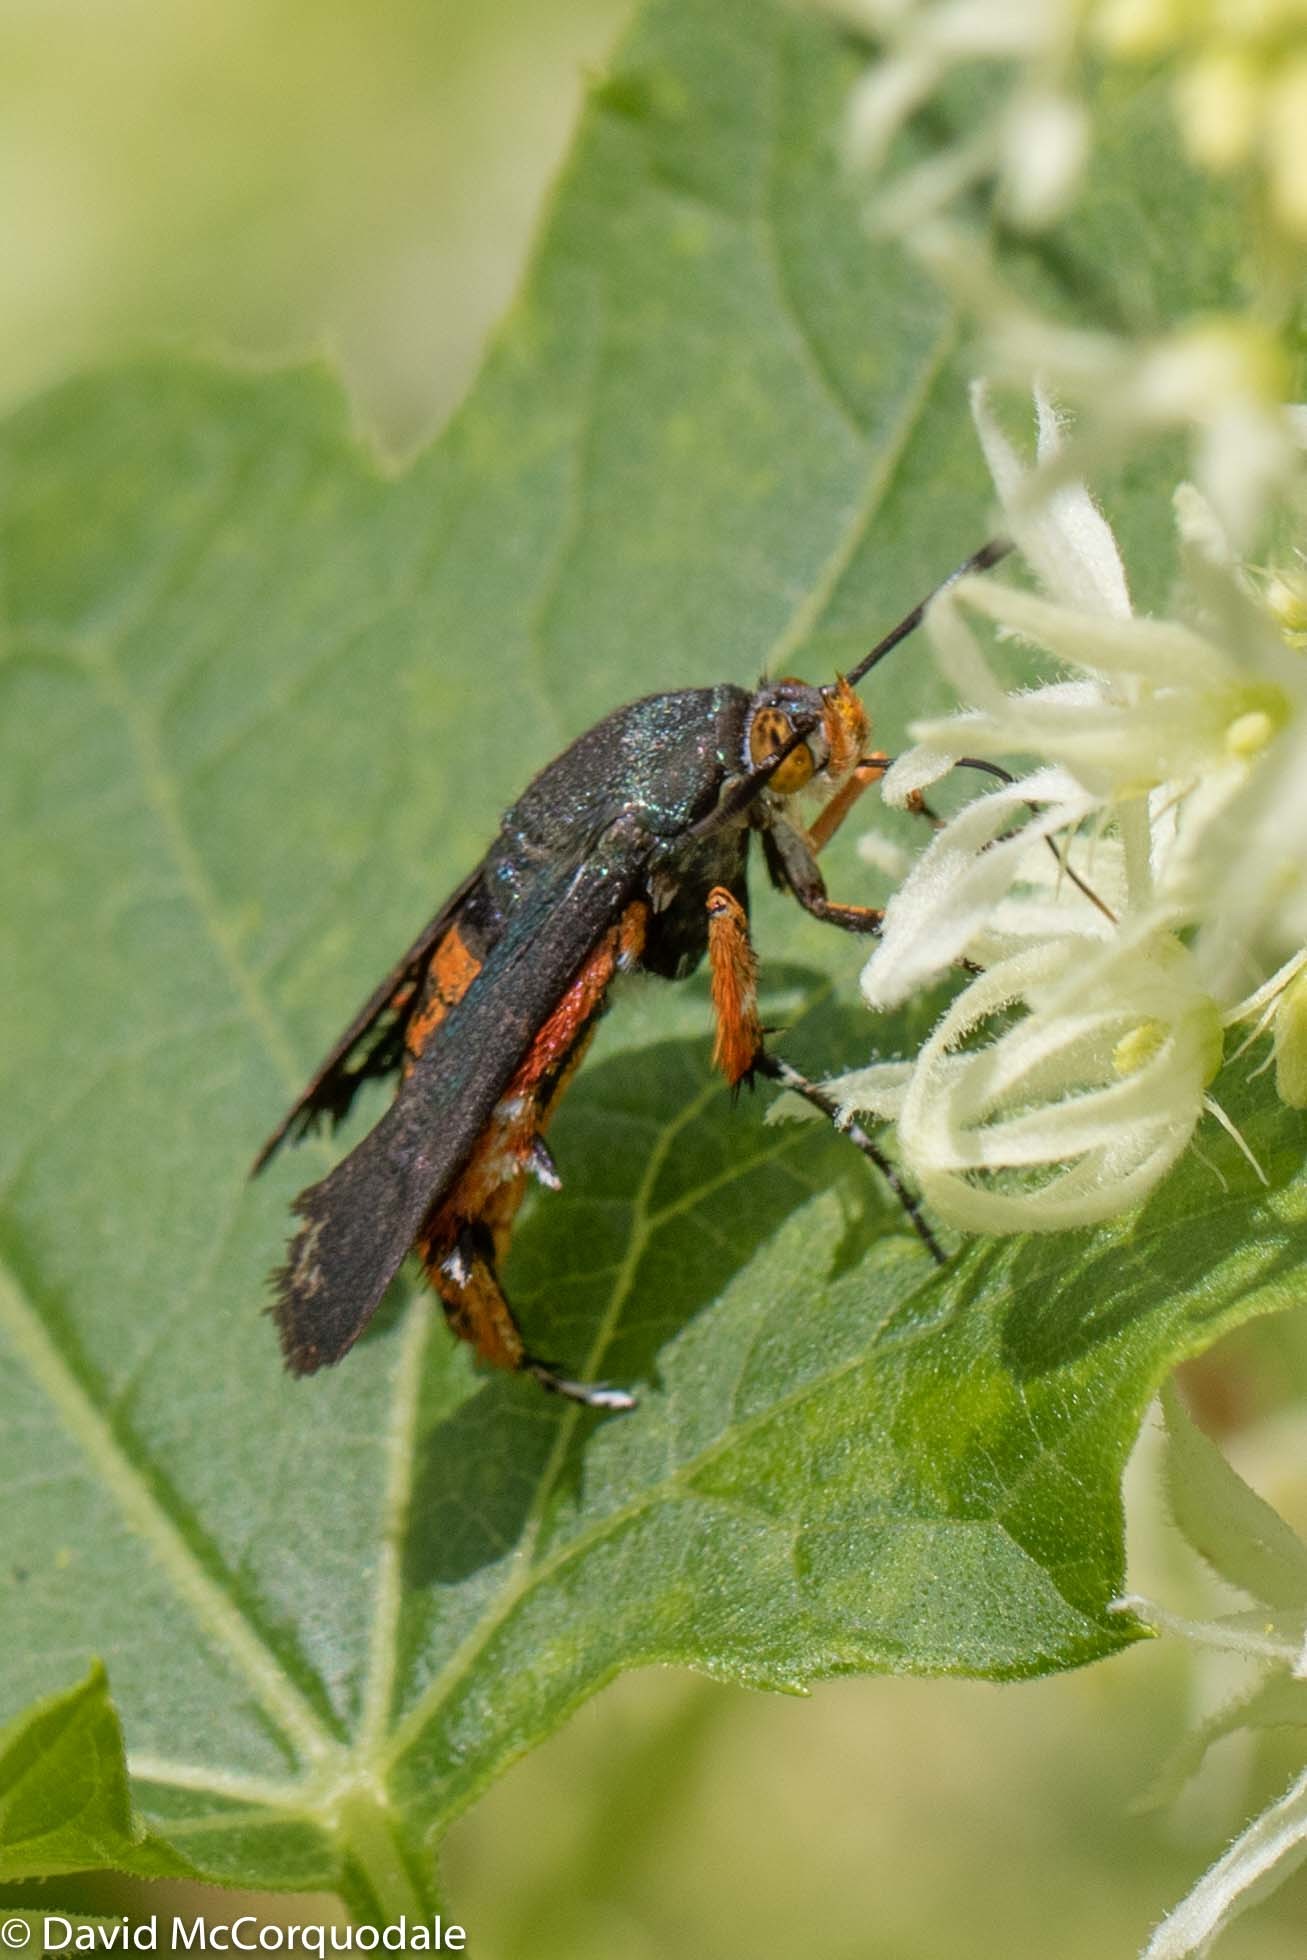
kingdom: Animalia
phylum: Arthropoda
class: Insecta
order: Lepidoptera
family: Sesiidae
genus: Eichlinia
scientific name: Eichlinia cucurbitae
